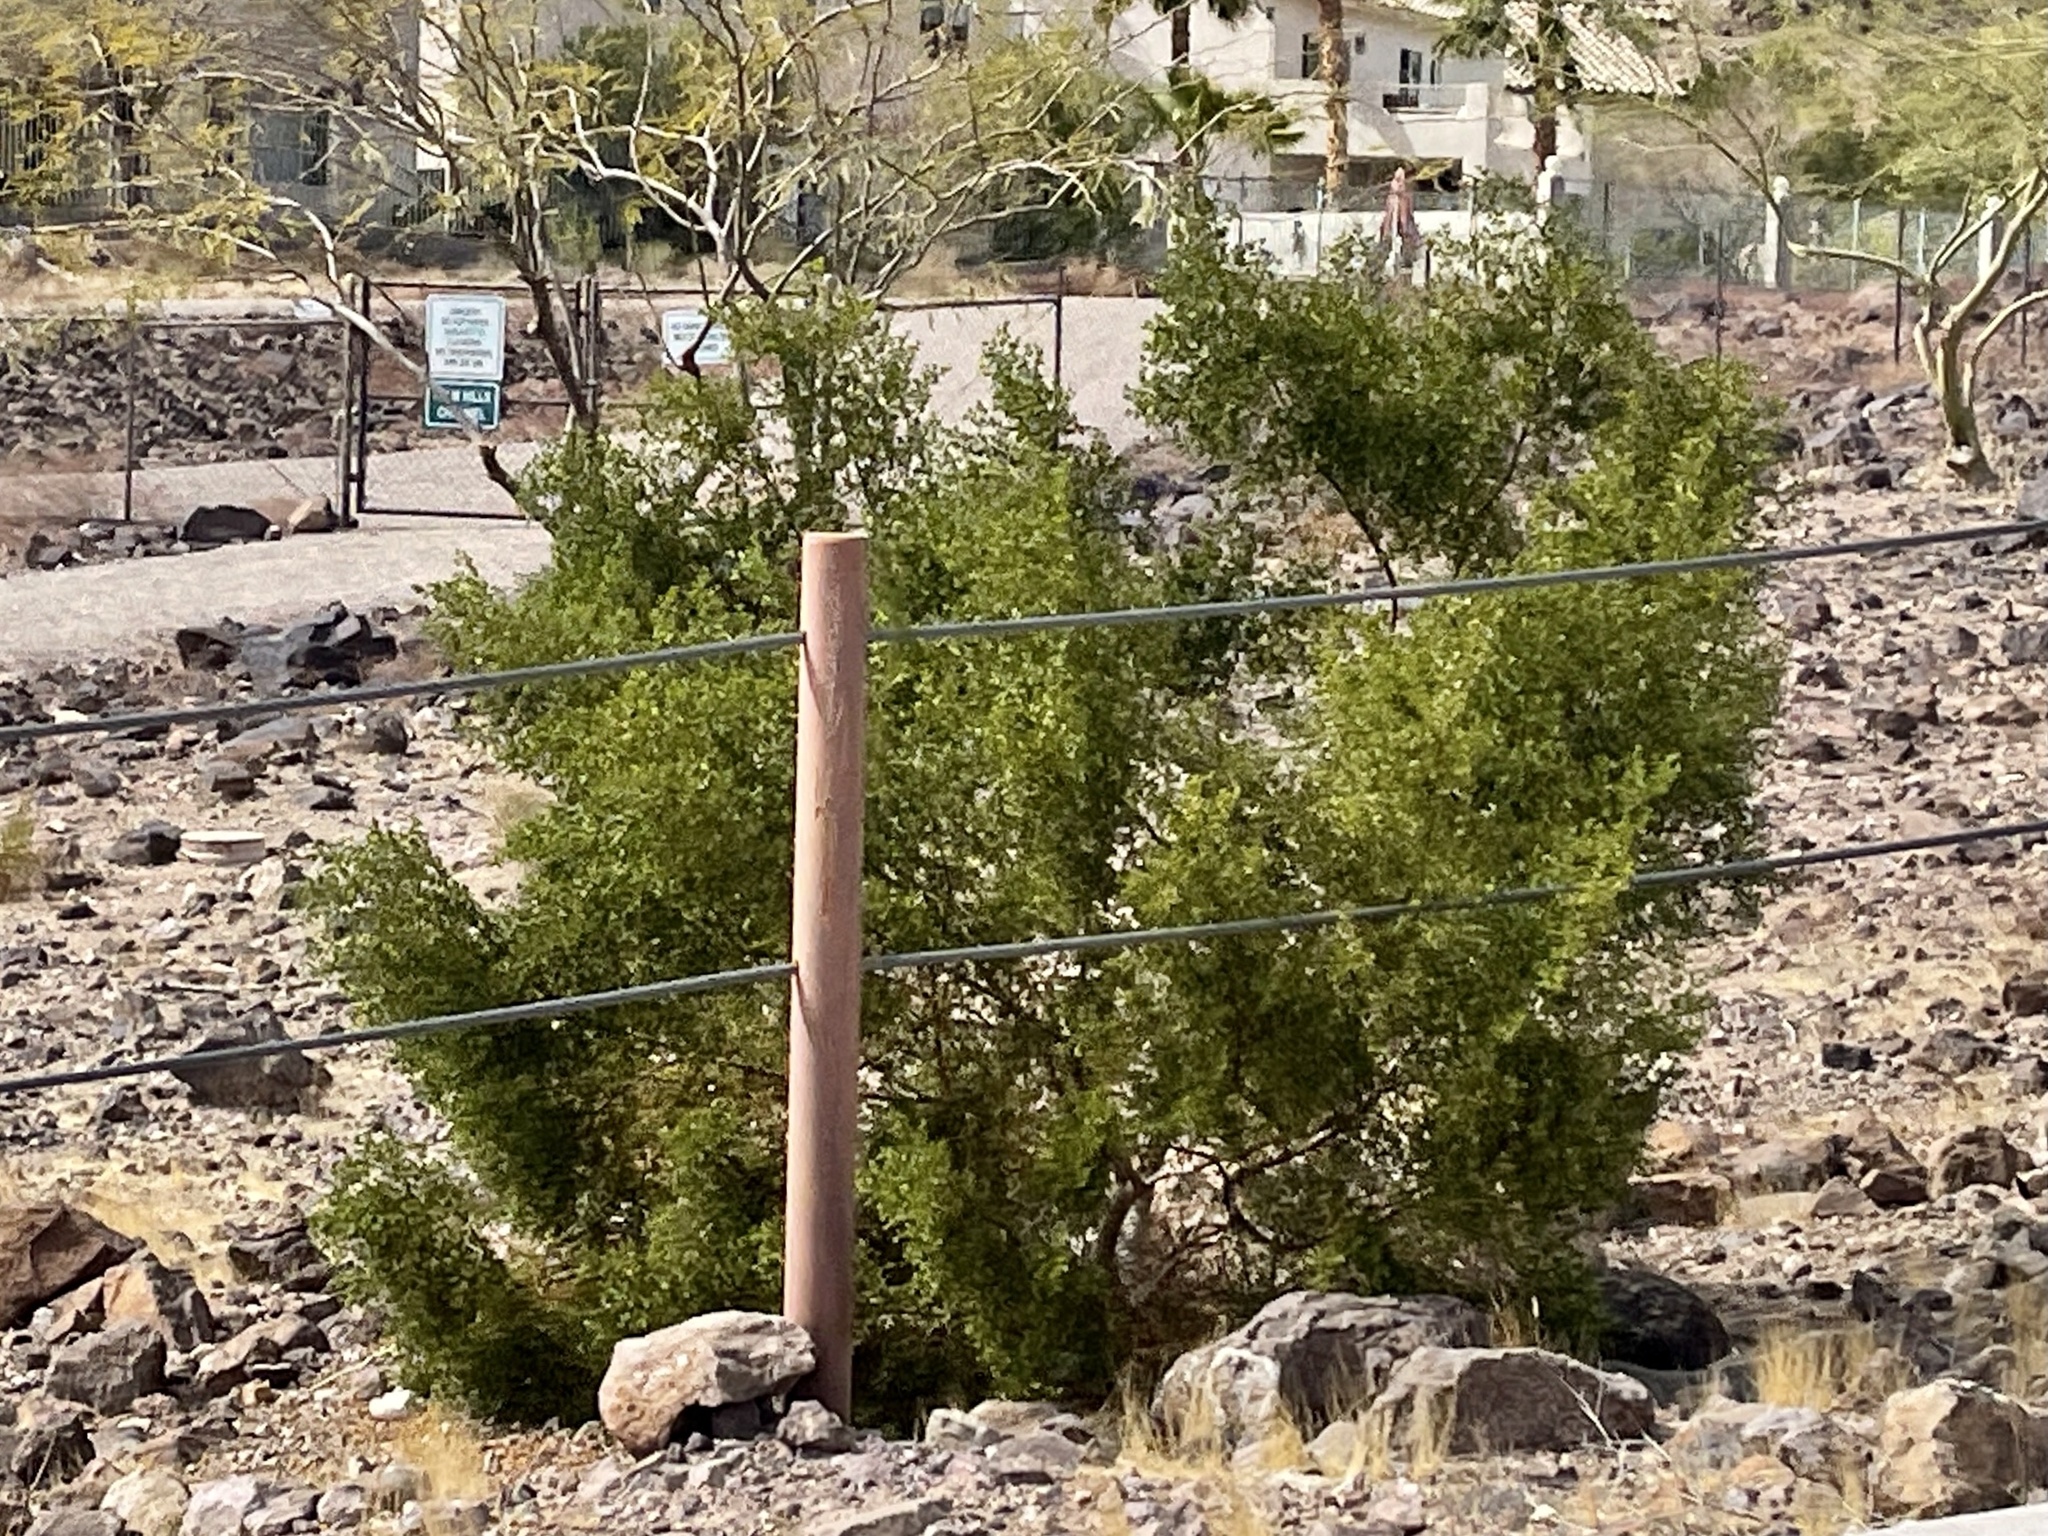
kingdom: Plantae
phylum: Tracheophyta
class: Magnoliopsida
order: Zygophyllales
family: Zygophyllaceae
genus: Larrea
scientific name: Larrea tridentata
